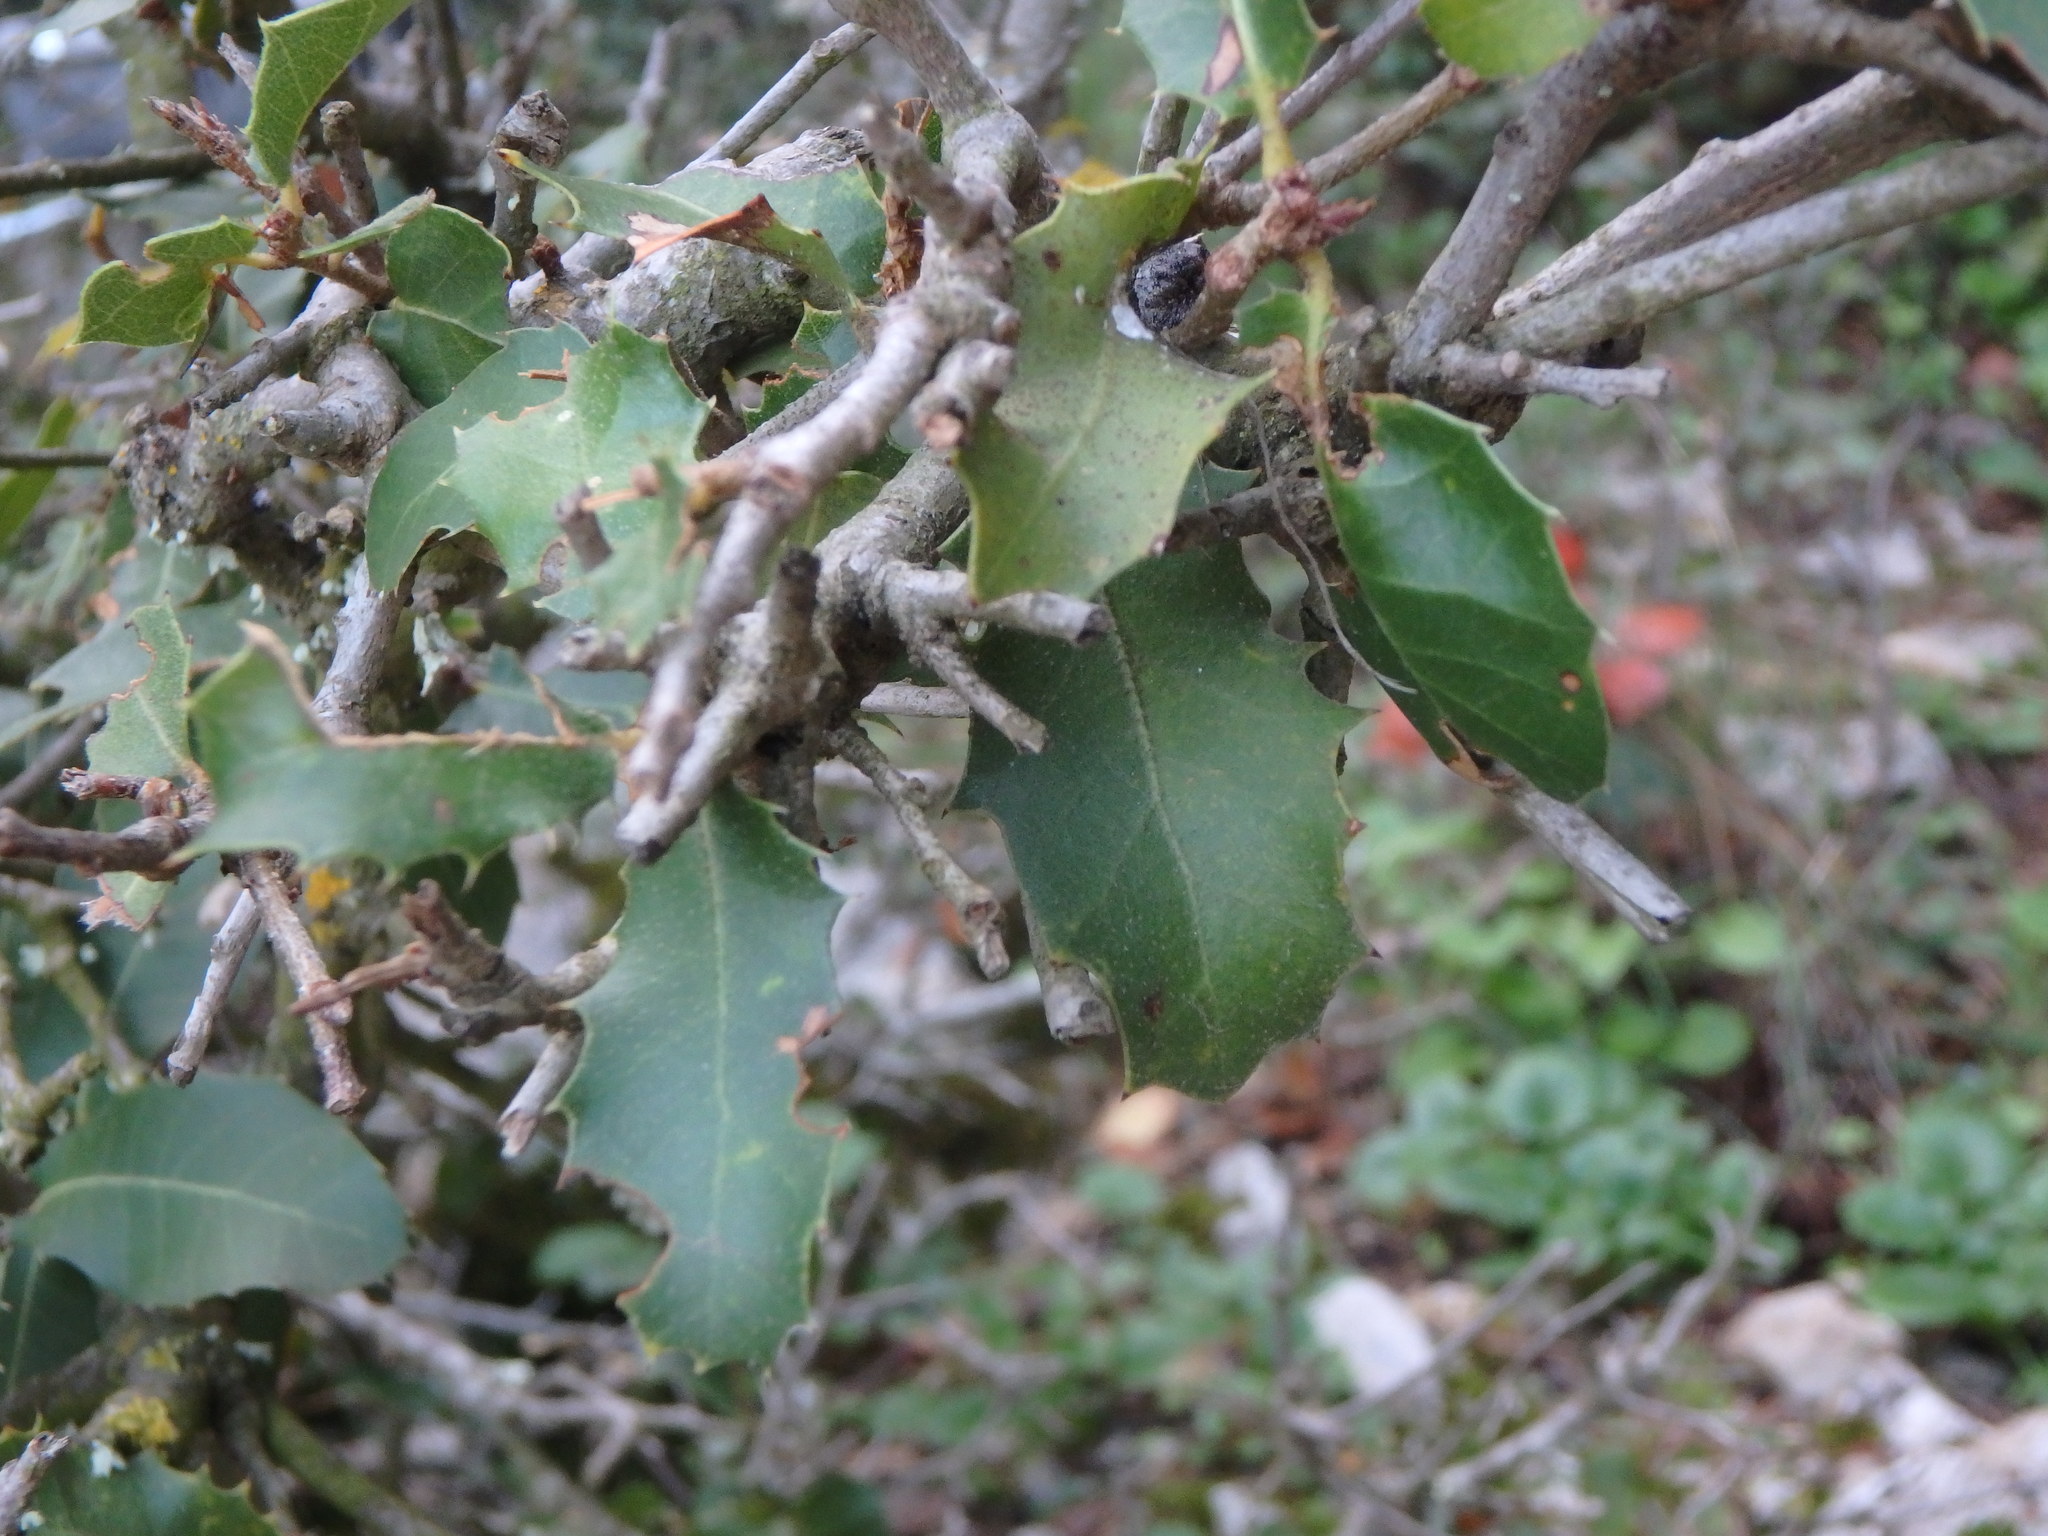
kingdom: Plantae
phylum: Tracheophyta
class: Magnoliopsida
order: Fagales
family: Fagaceae
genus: Quercus
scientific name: Quercus coccifera
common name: Kermes oak
